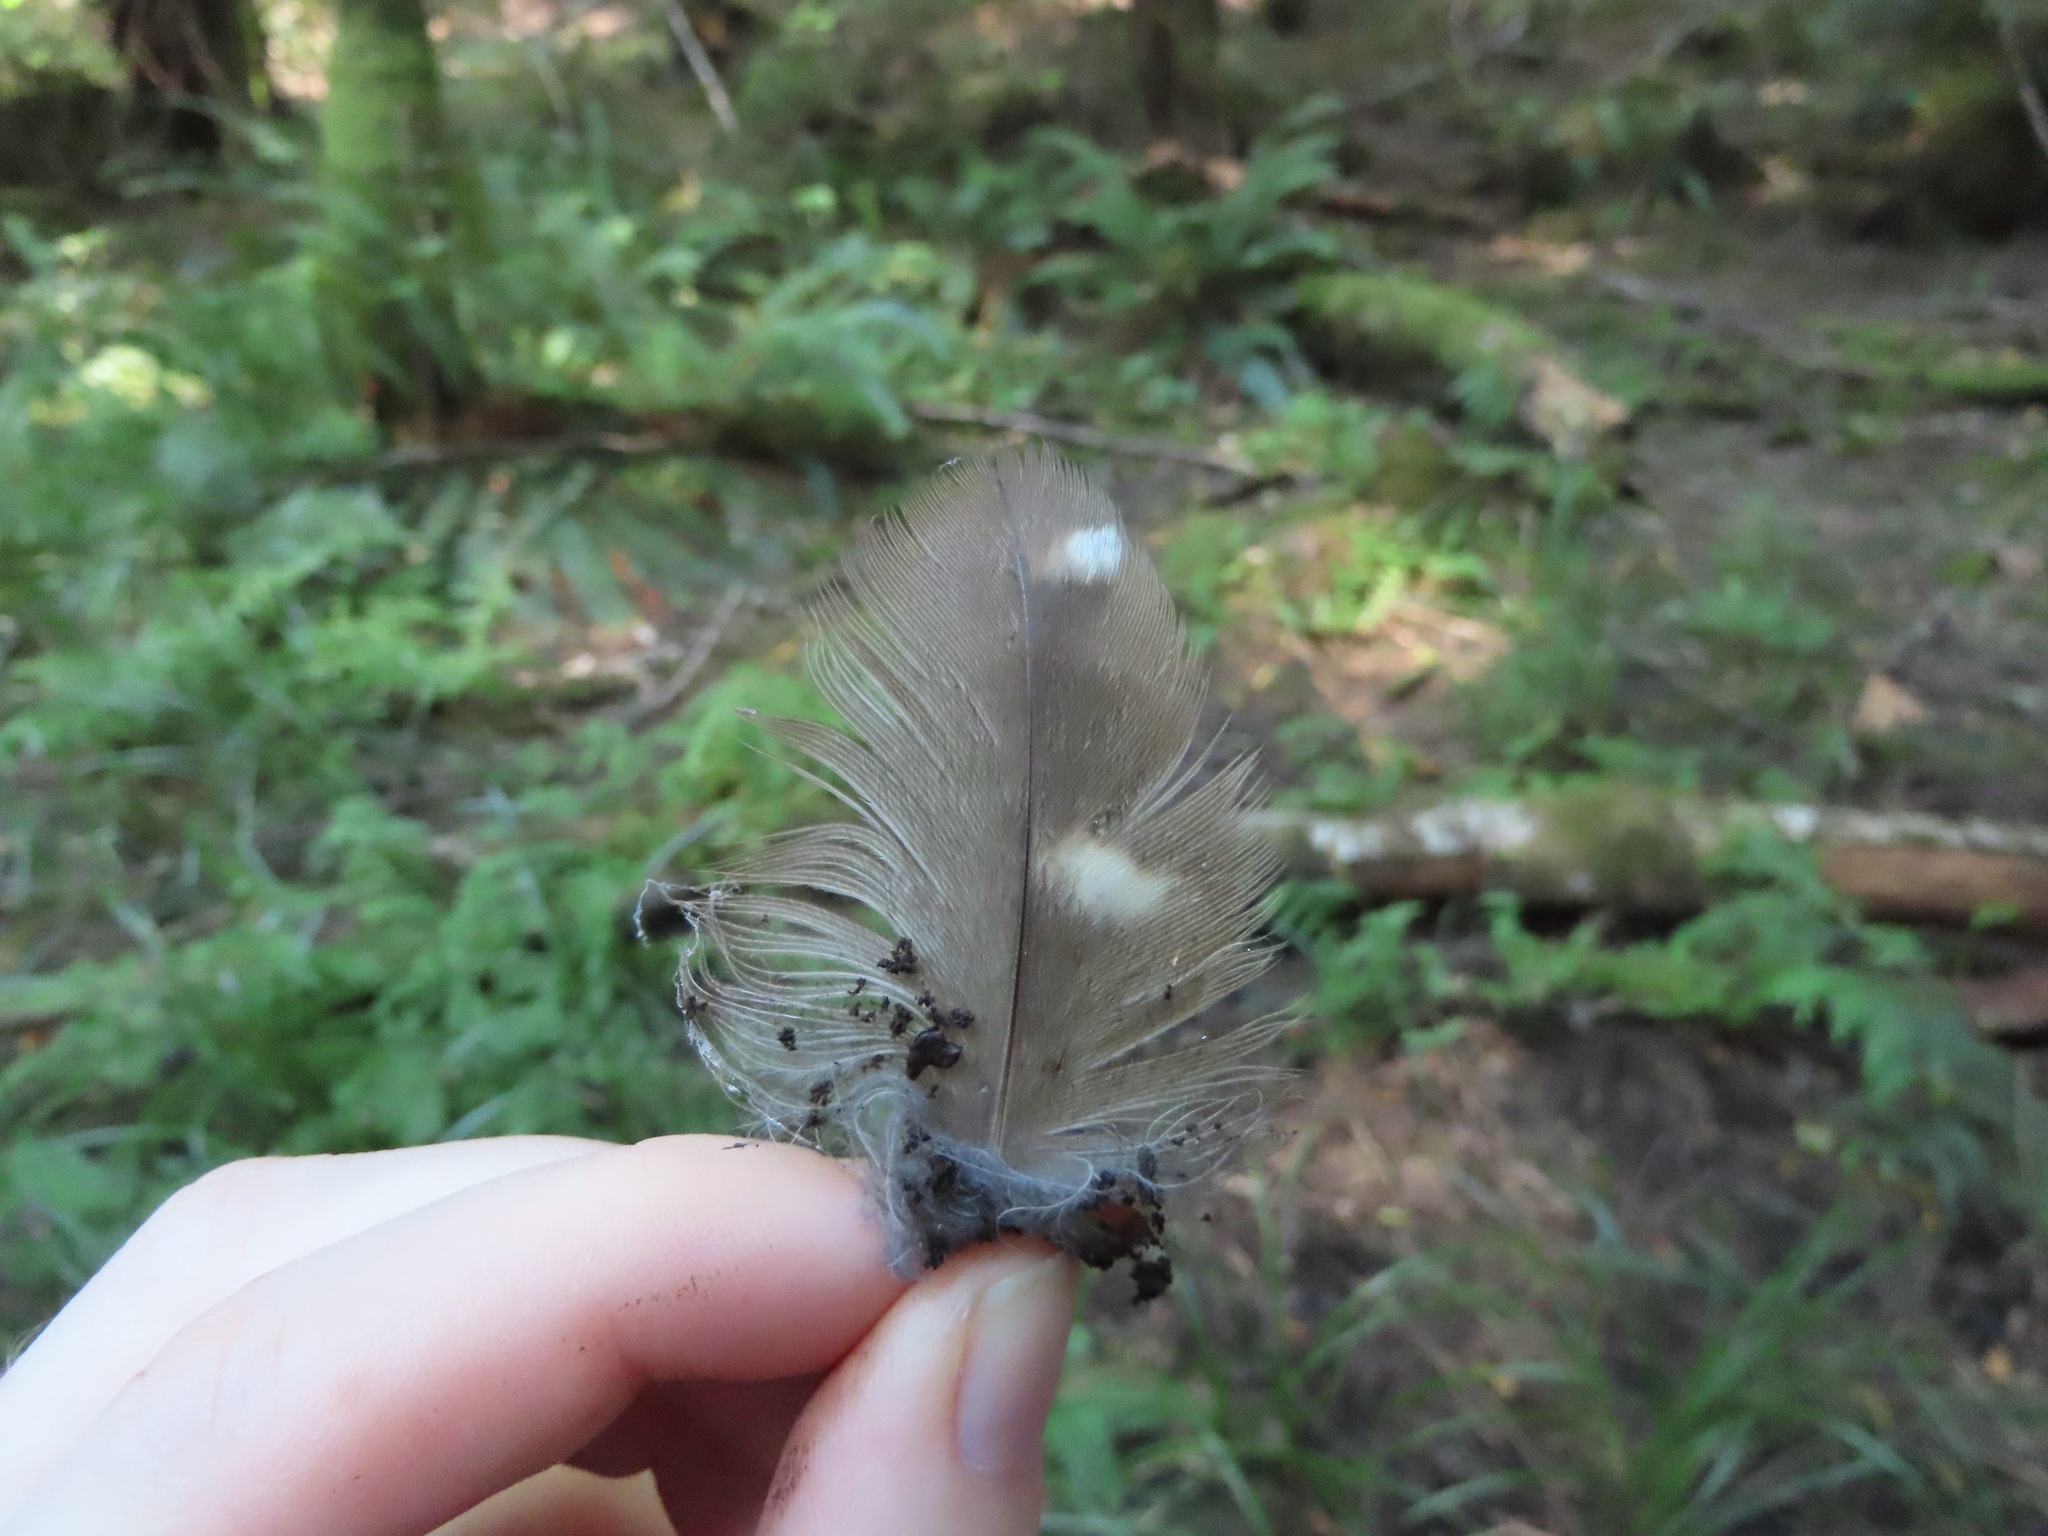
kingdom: Animalia
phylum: Chordata
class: Aves
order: Strigiformes
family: Strigidae
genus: Strix
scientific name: Strix varia
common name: Barred owl
